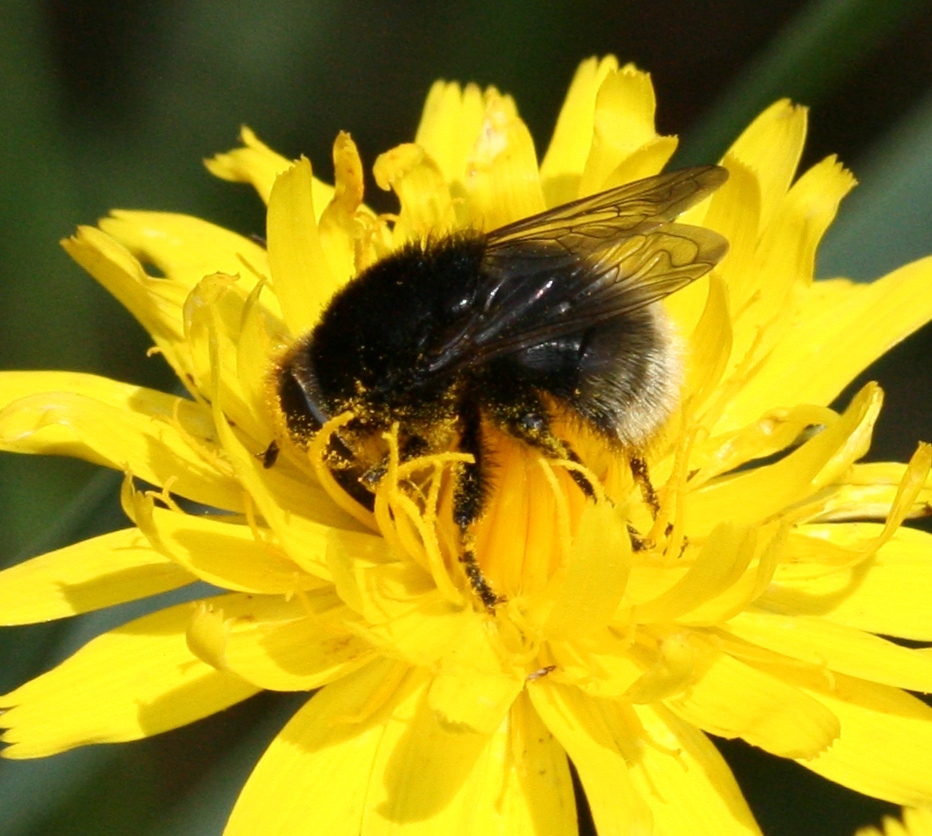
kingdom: Animalia
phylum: Arthropoda
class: Insecta
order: Diptera
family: Syrphidae
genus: Merodon
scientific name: Merodon equestris
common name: Greater bulb-fly
